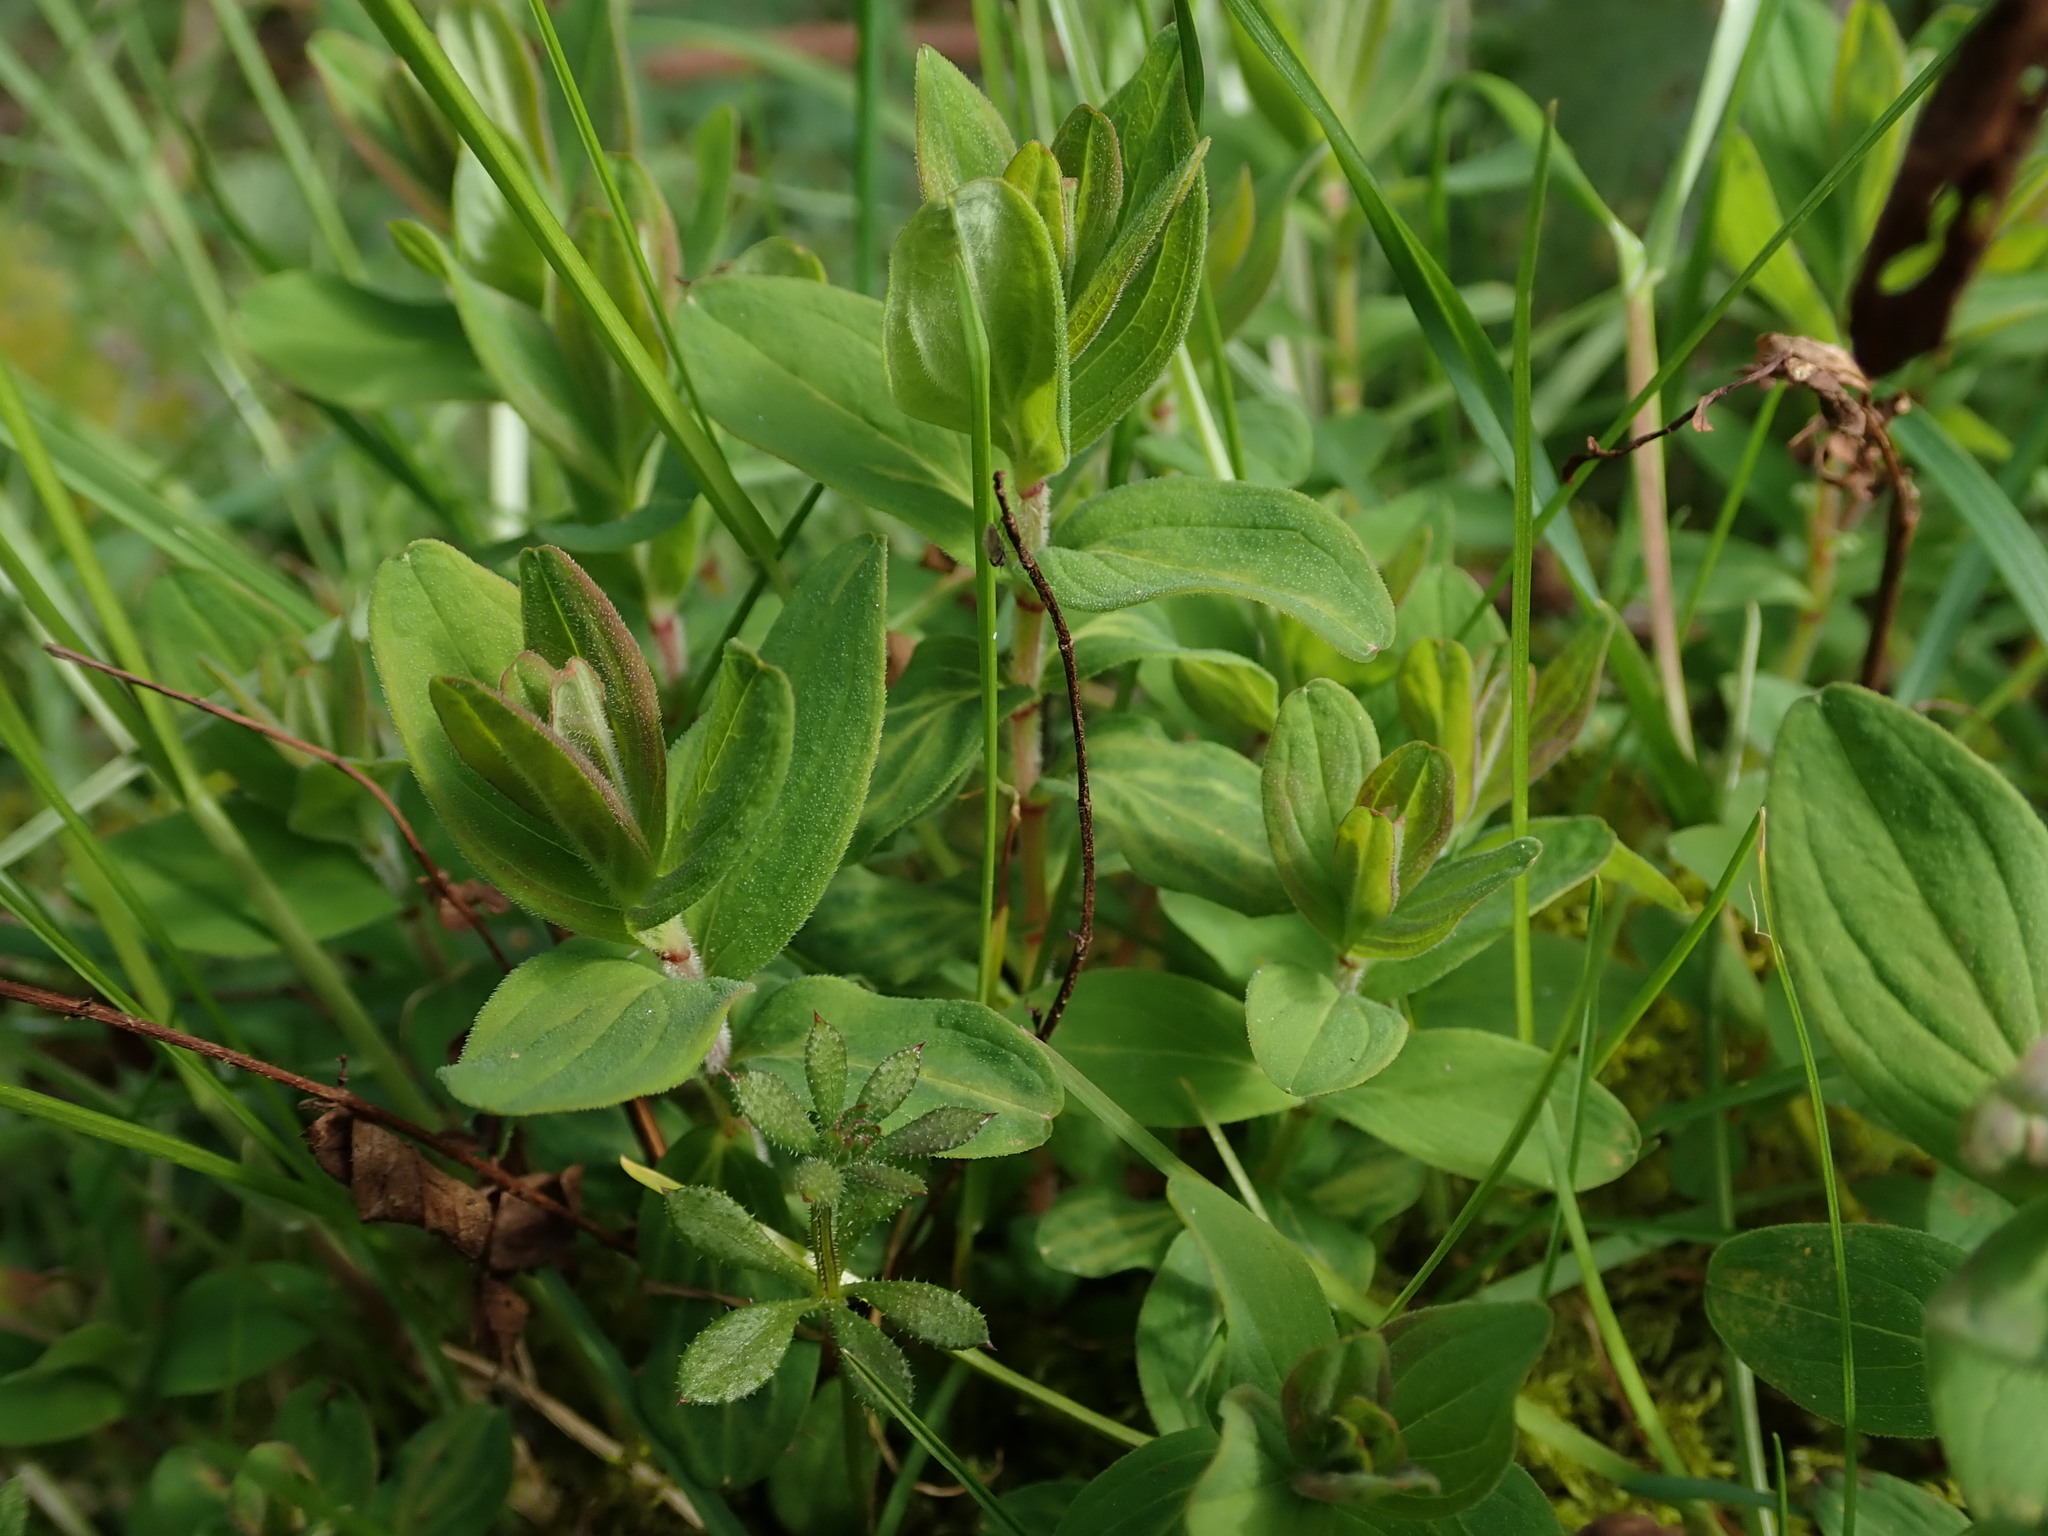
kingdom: Plantae
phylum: Tracheophyta
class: Magnoliopsida
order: Malpighiales
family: Hypericaceae
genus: Hypericum
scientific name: Hypericum hirsutum
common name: Hairy st. john's-wort
